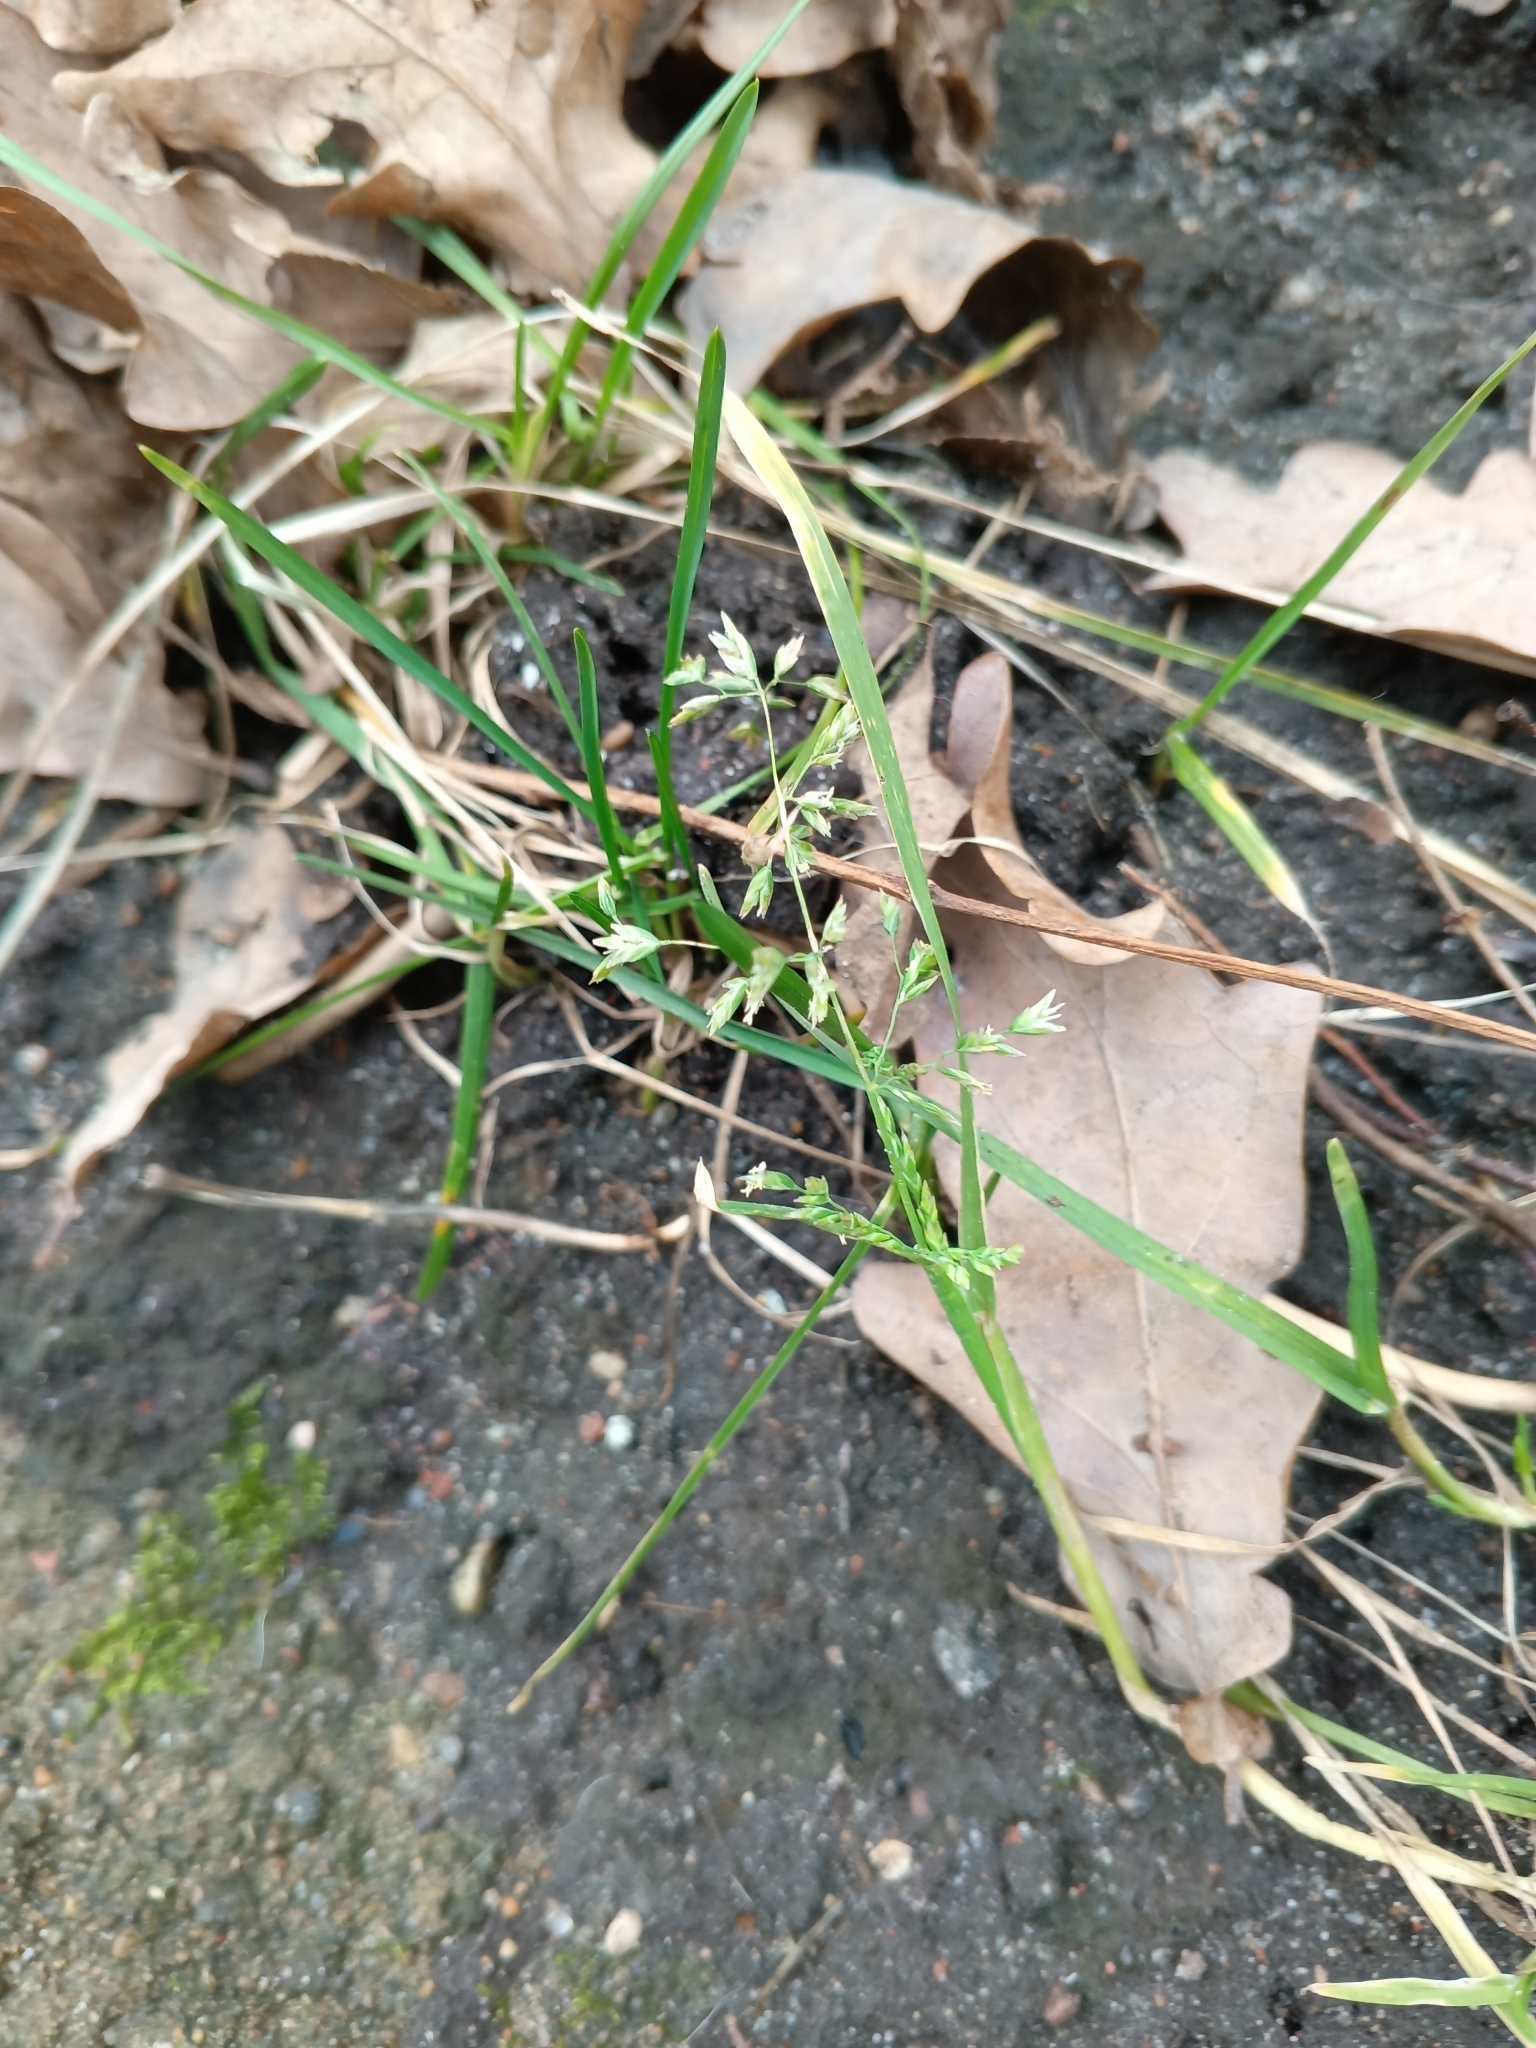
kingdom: Plantae
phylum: Tracheophyta
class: Liliopsida
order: Poales
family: Poaceae
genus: Poa
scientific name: Poa annua
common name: Annual bluegrass
